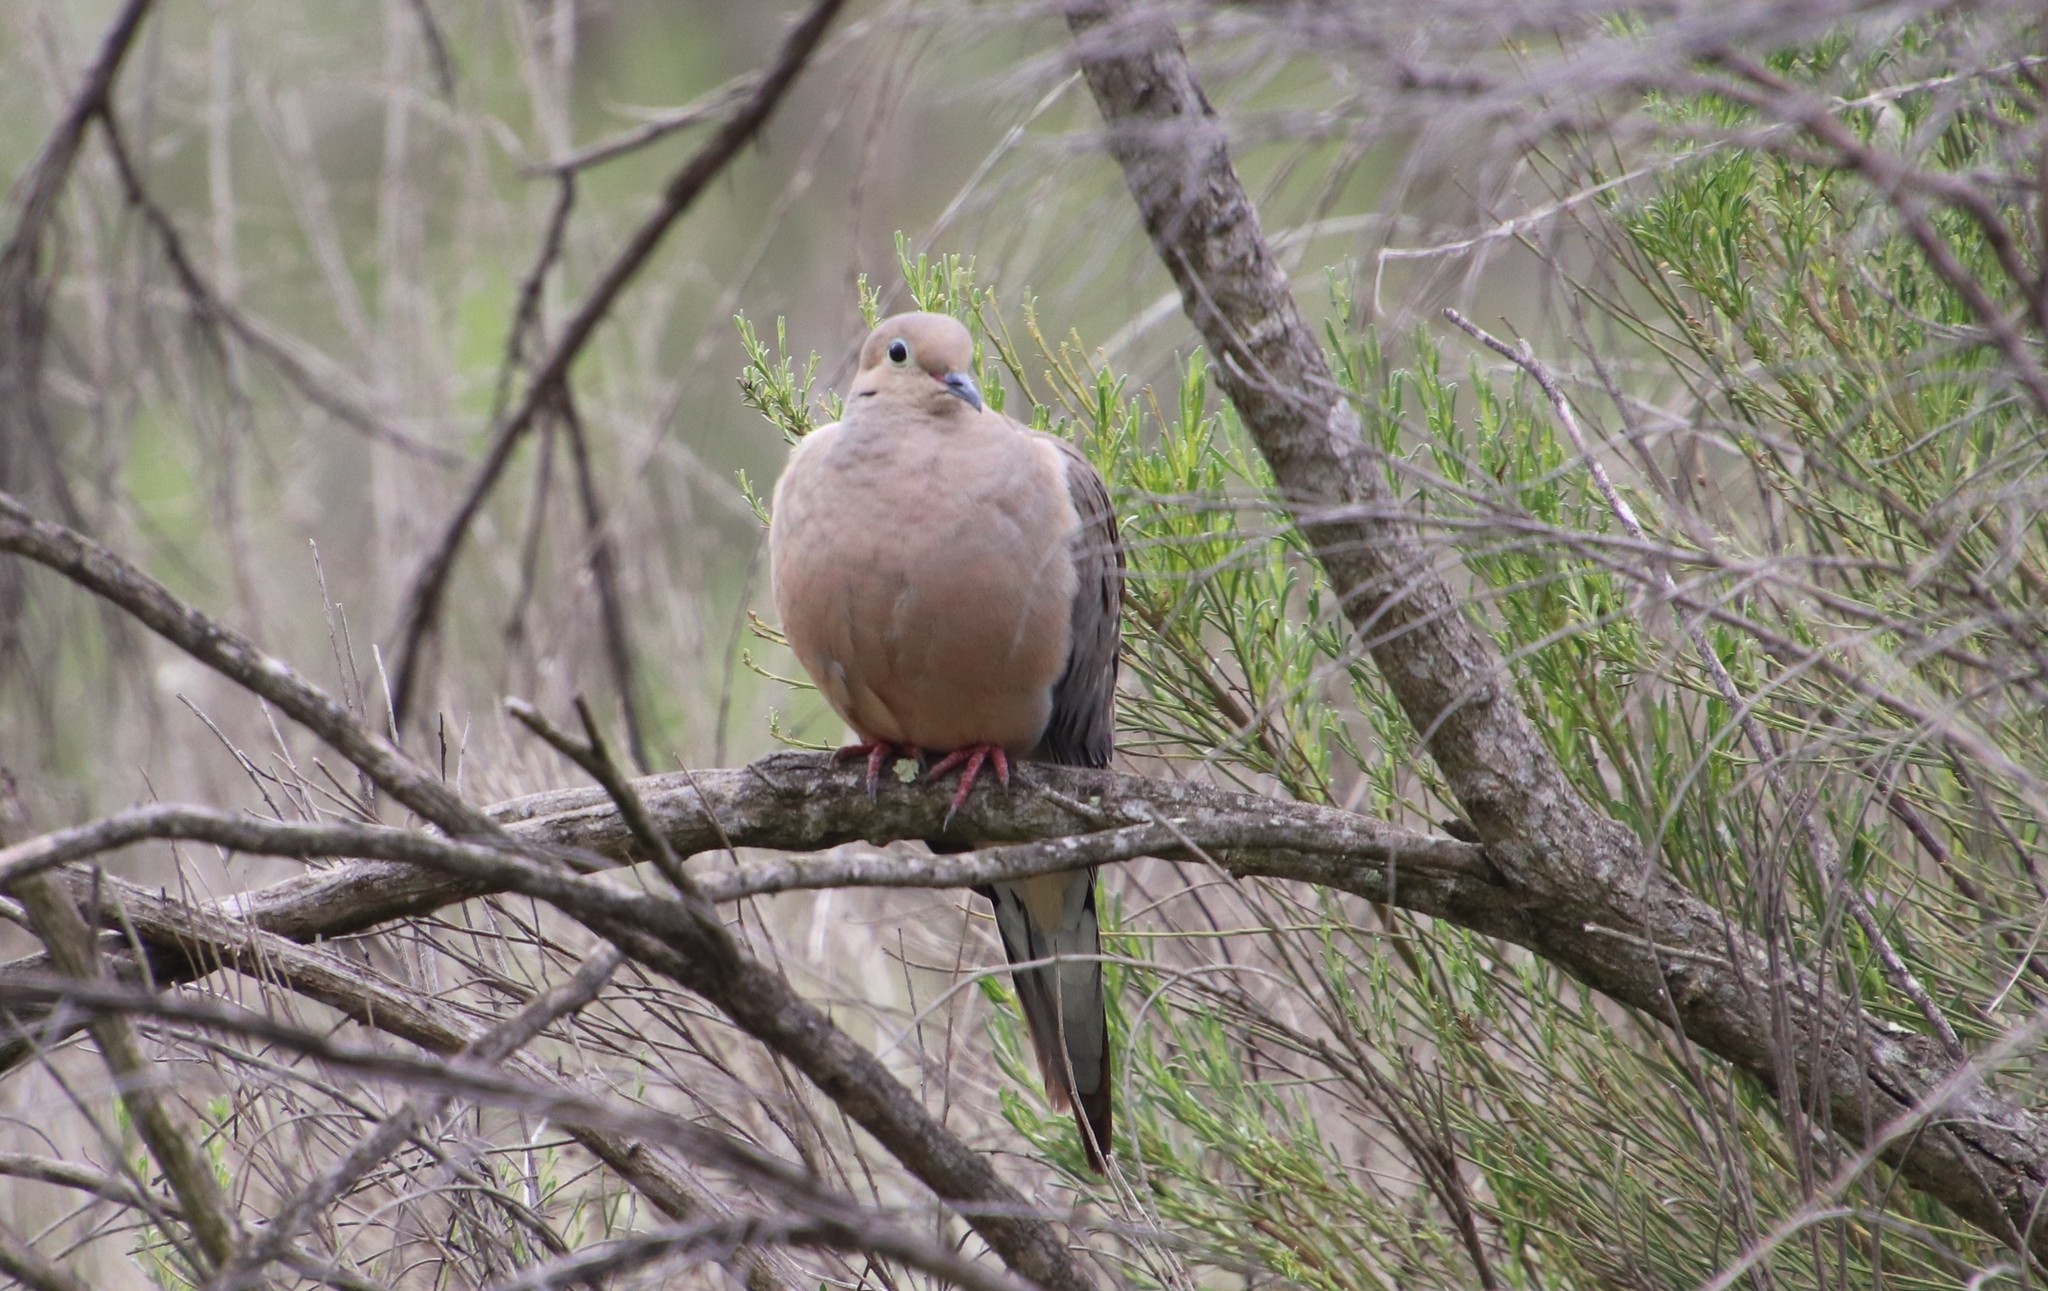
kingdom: Animalia
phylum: Chordata
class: Aves
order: Columbiformes
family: Columbidae
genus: Zenaida
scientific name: Zenaida macroura
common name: Mourning dove
